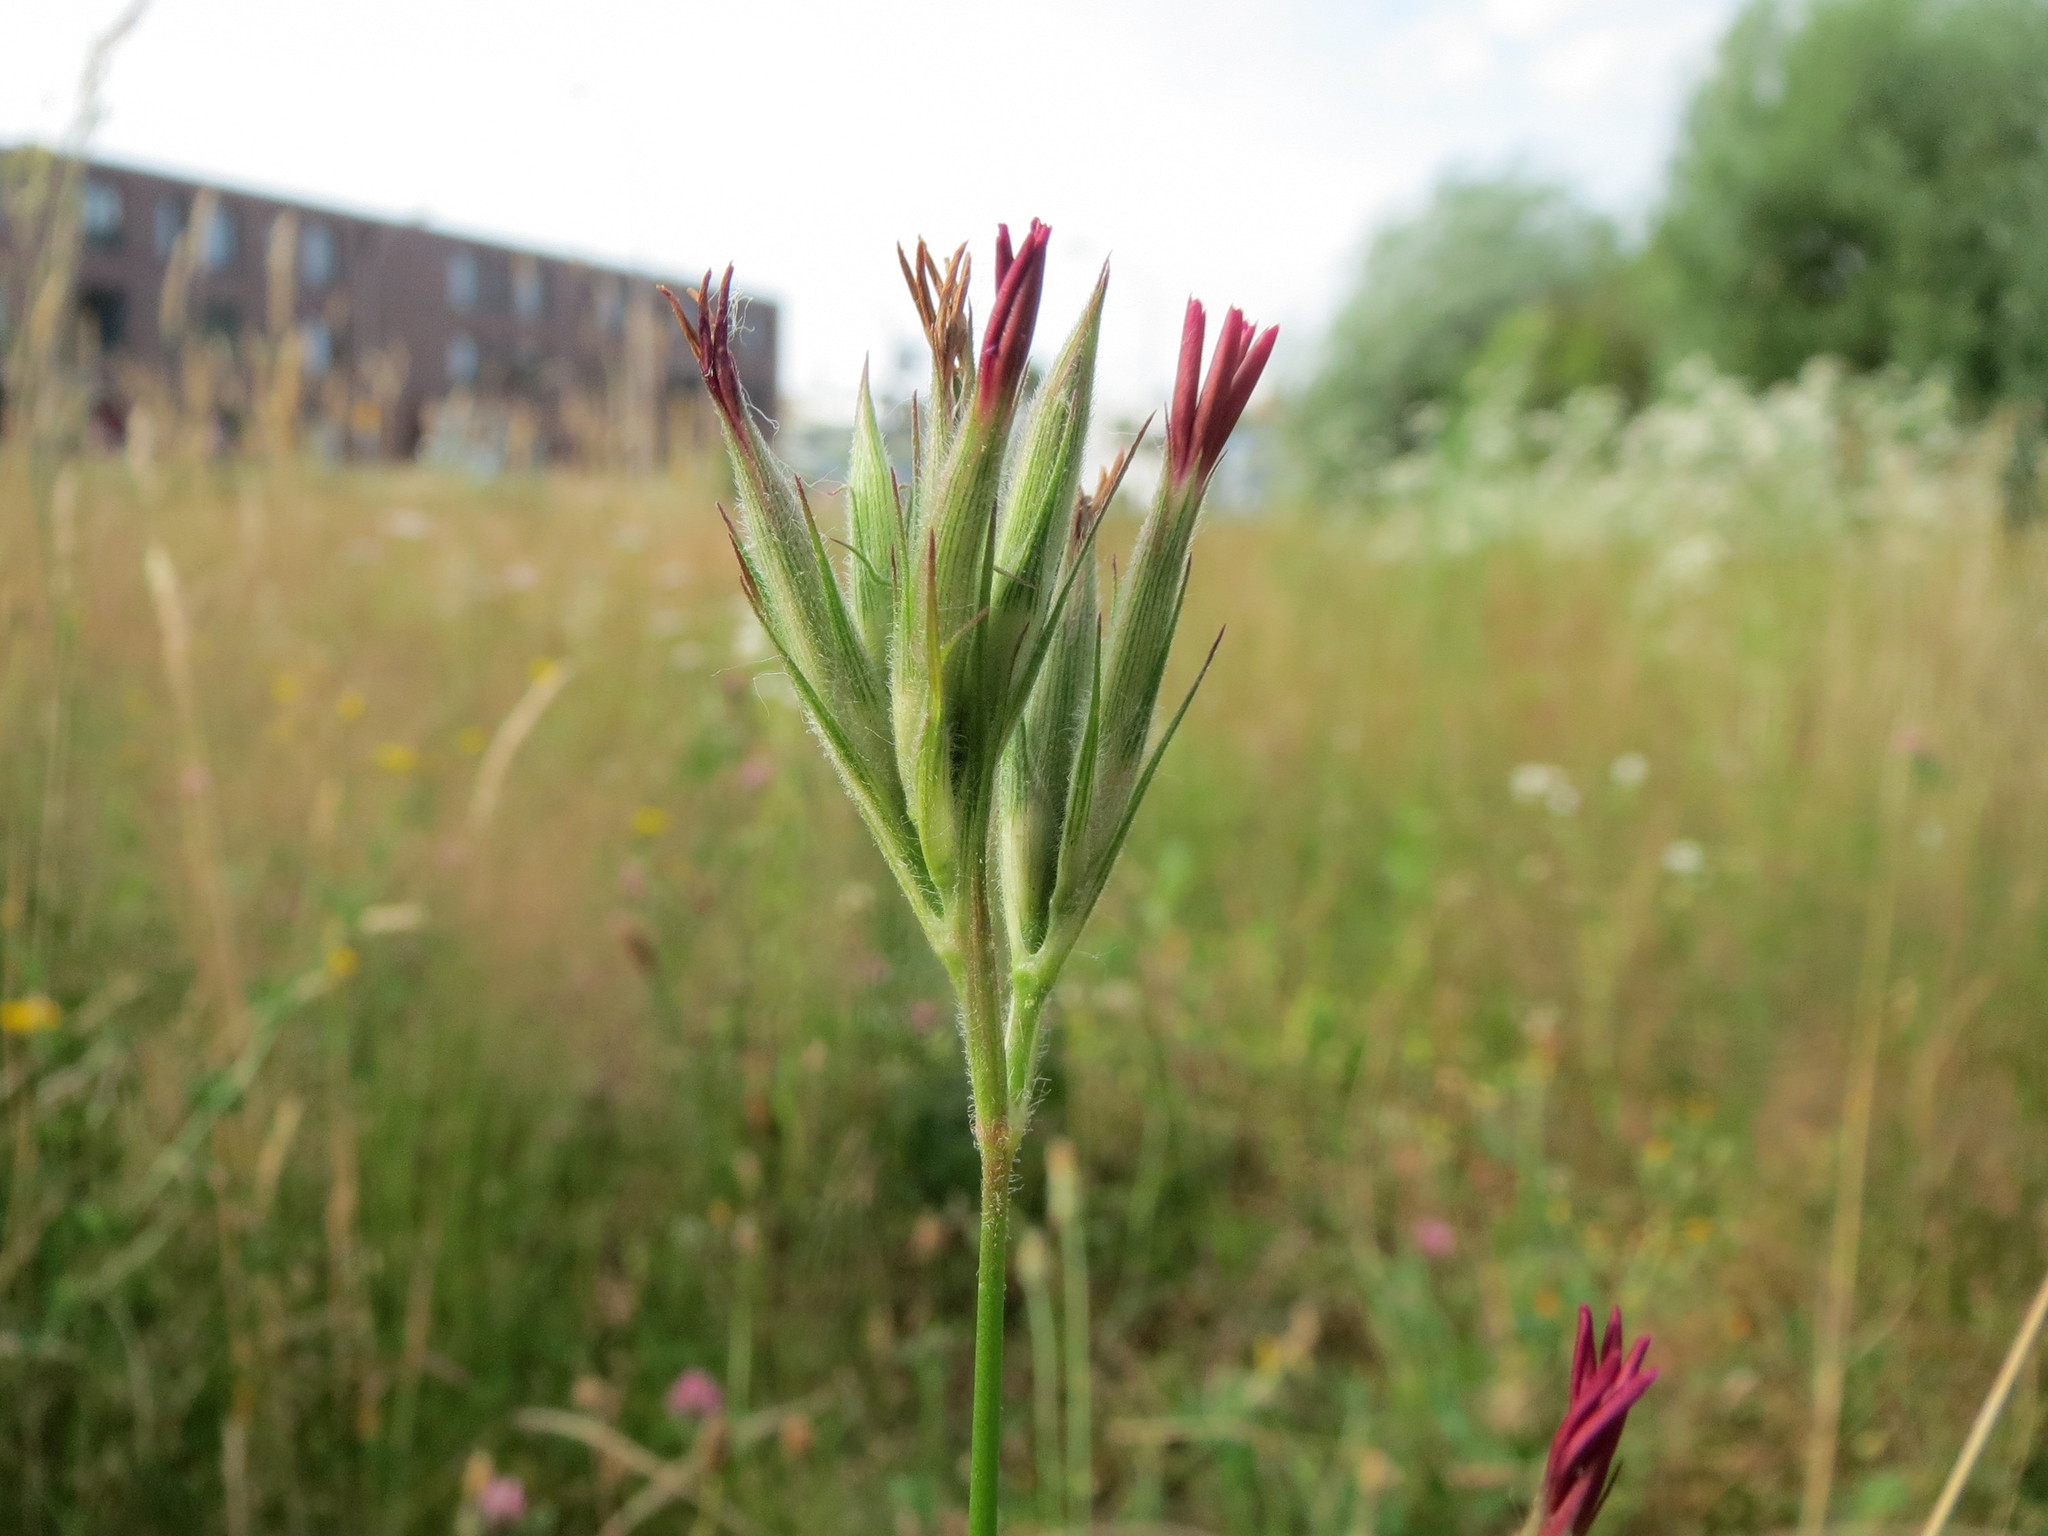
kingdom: Plantae
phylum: Tracheophyta
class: Magnoliopsida
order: Caryophyllales
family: Caryophyllaceae
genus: Dianthus
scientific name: Dianthus armeria
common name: Deptford pink
